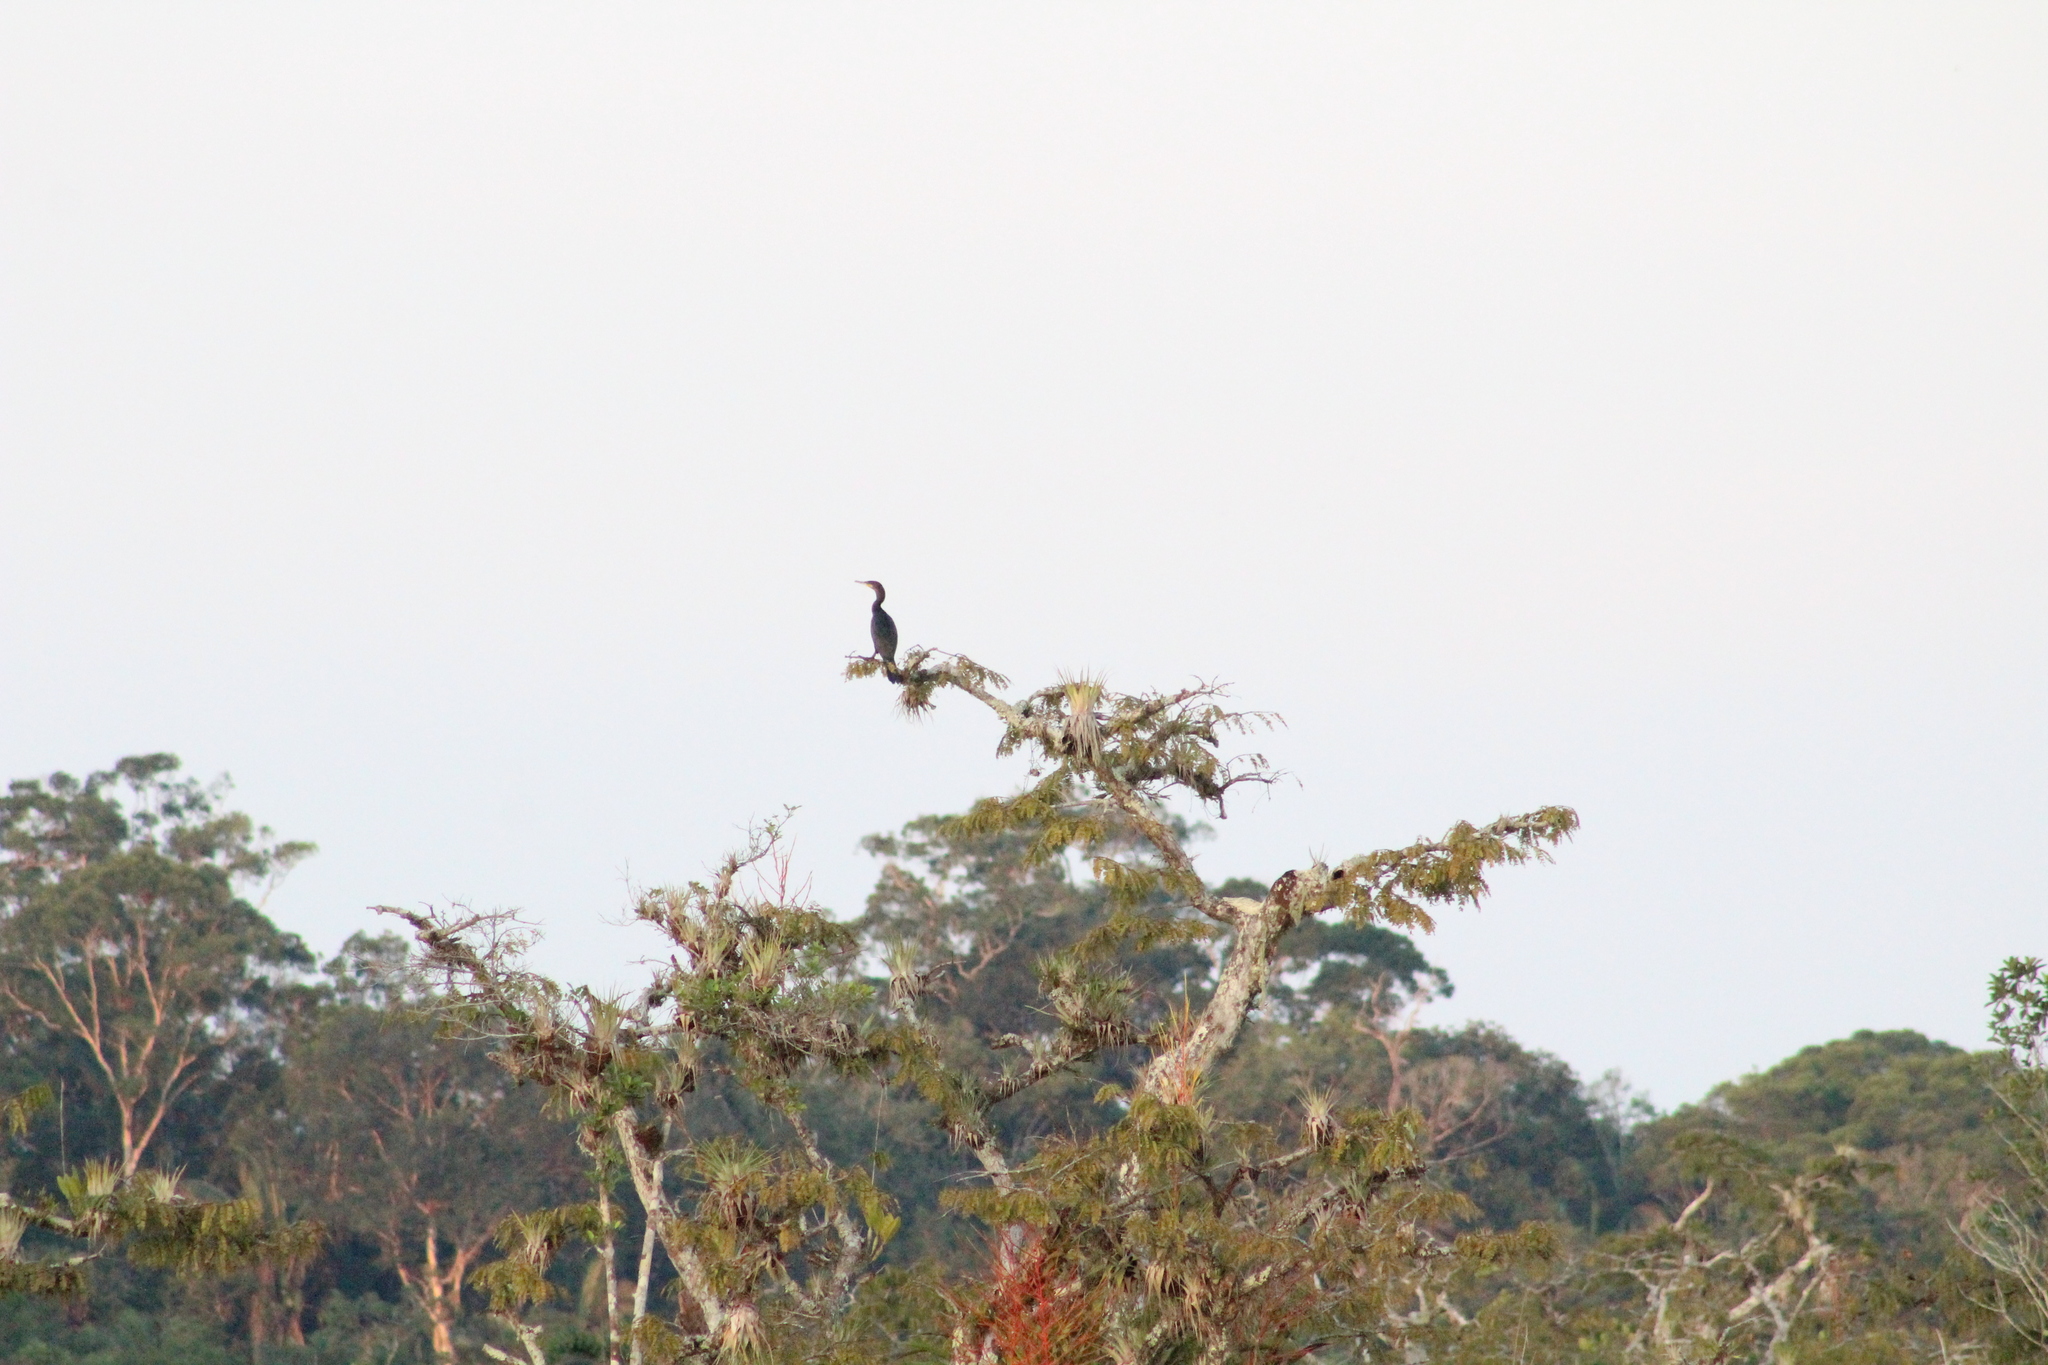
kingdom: Animalia
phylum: Chordata
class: Aves
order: Suliformes
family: Phalacrocoracidae
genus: Phalacrocorax
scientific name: Phalacrocorax brasilianus
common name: Neotropic cormorant
